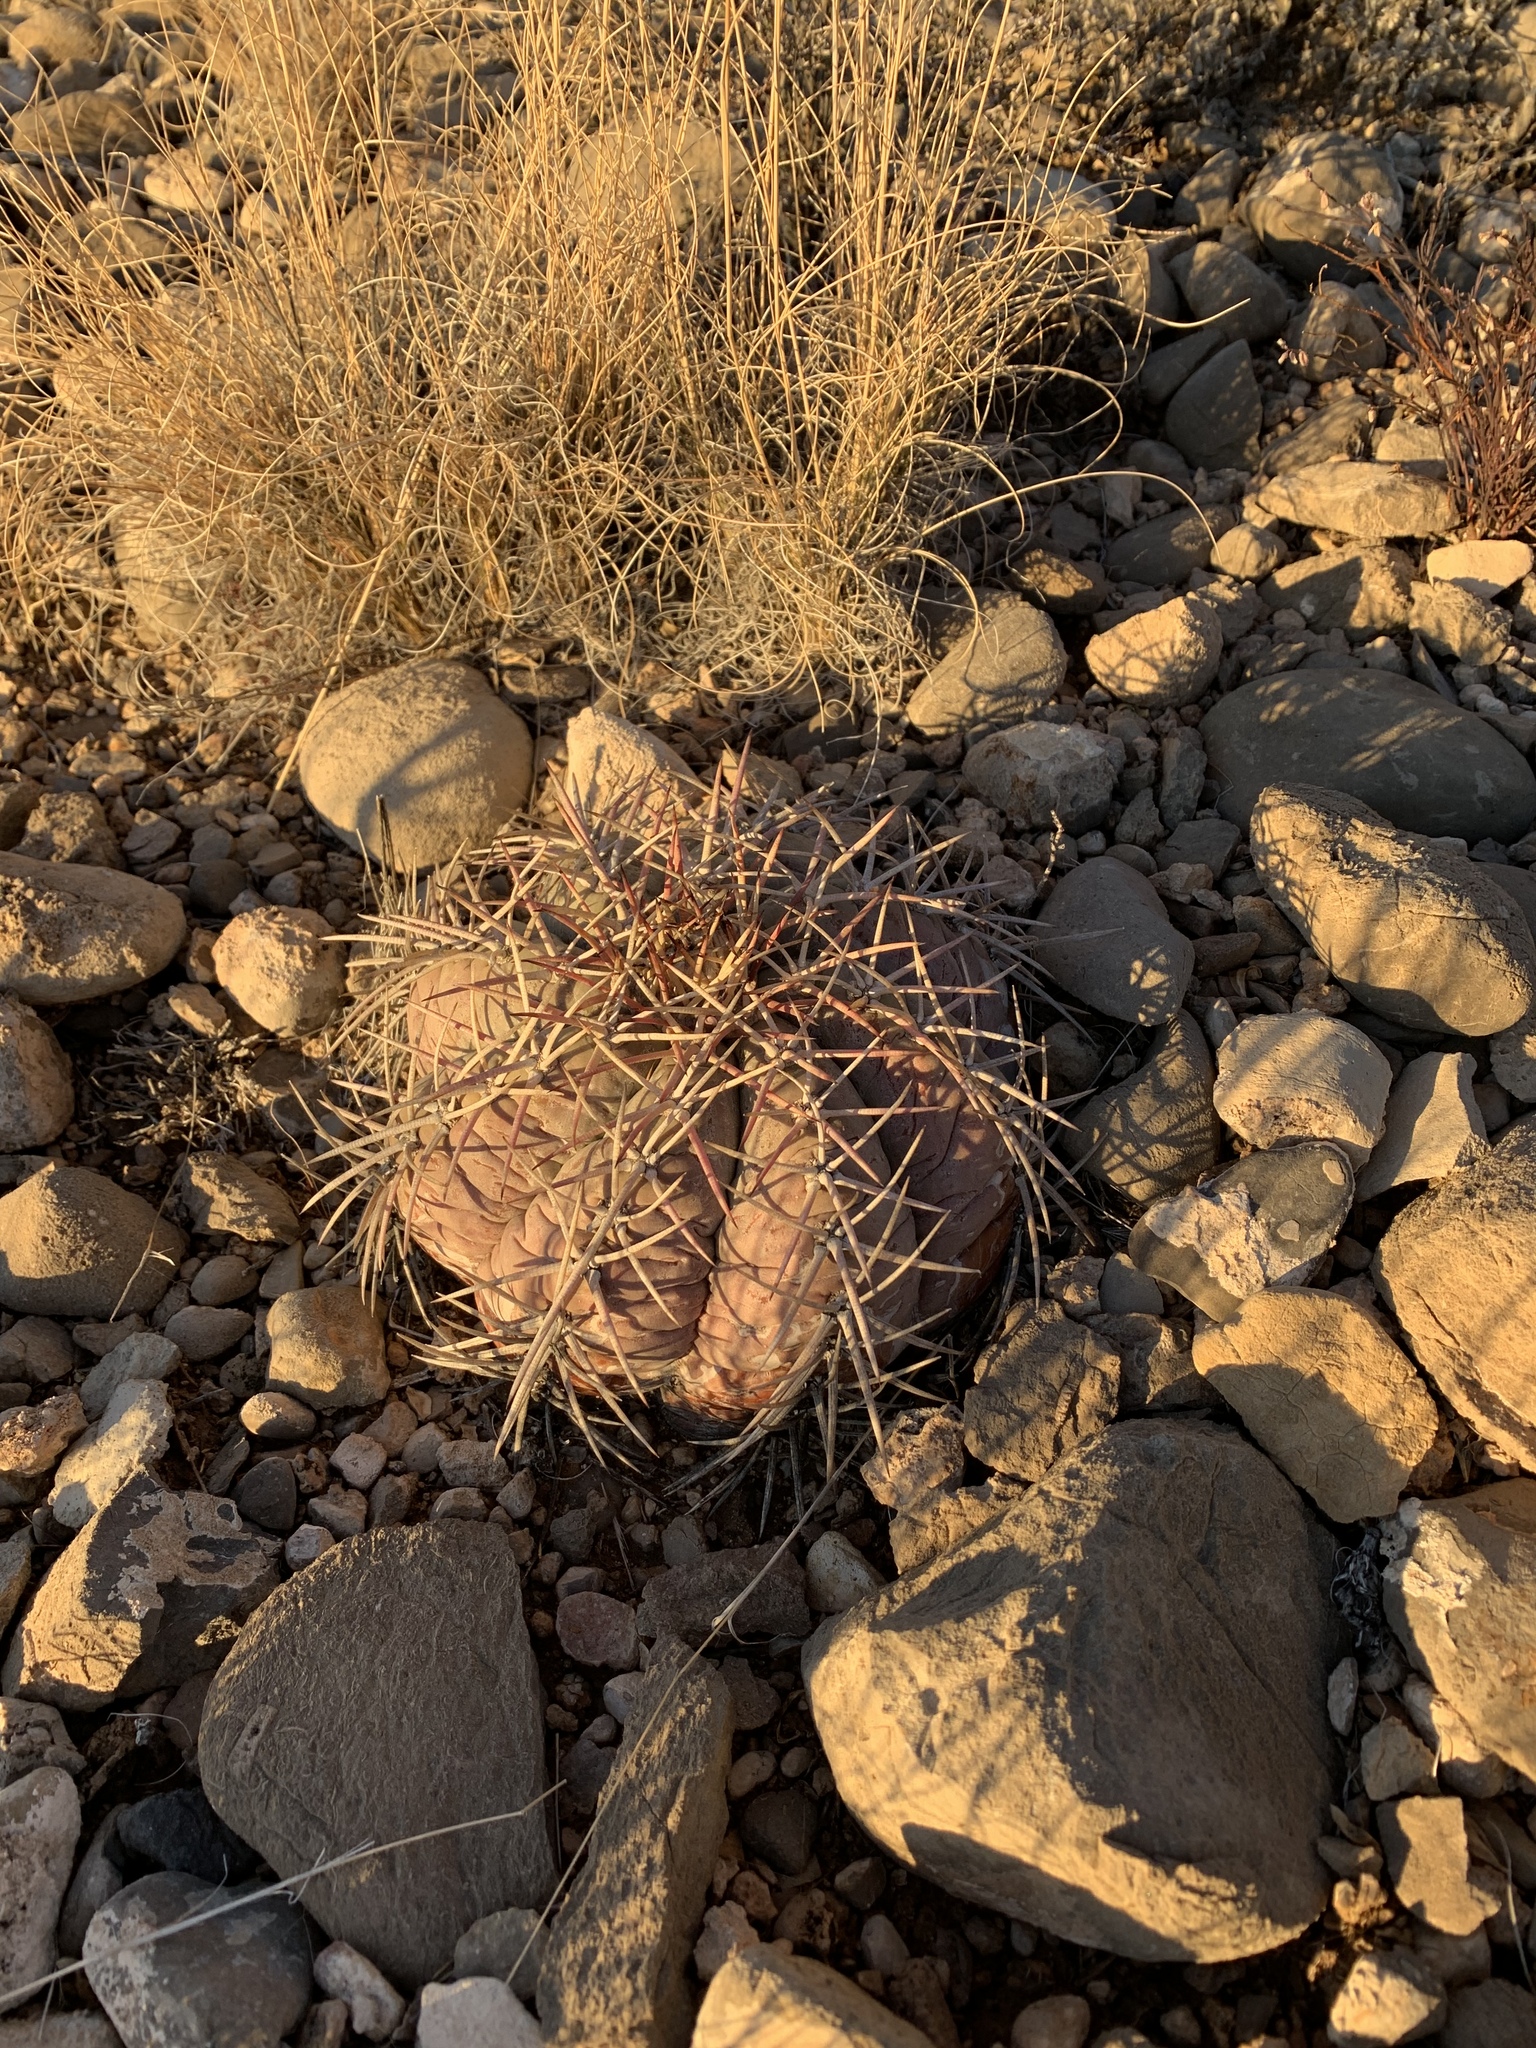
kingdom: Plantae
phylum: Tracheophyta
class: Magnoliopsida
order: Caryophyllales
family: Cactaceae
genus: Echinocactus
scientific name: Echinocactus horizonthalonius
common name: Devilshead
